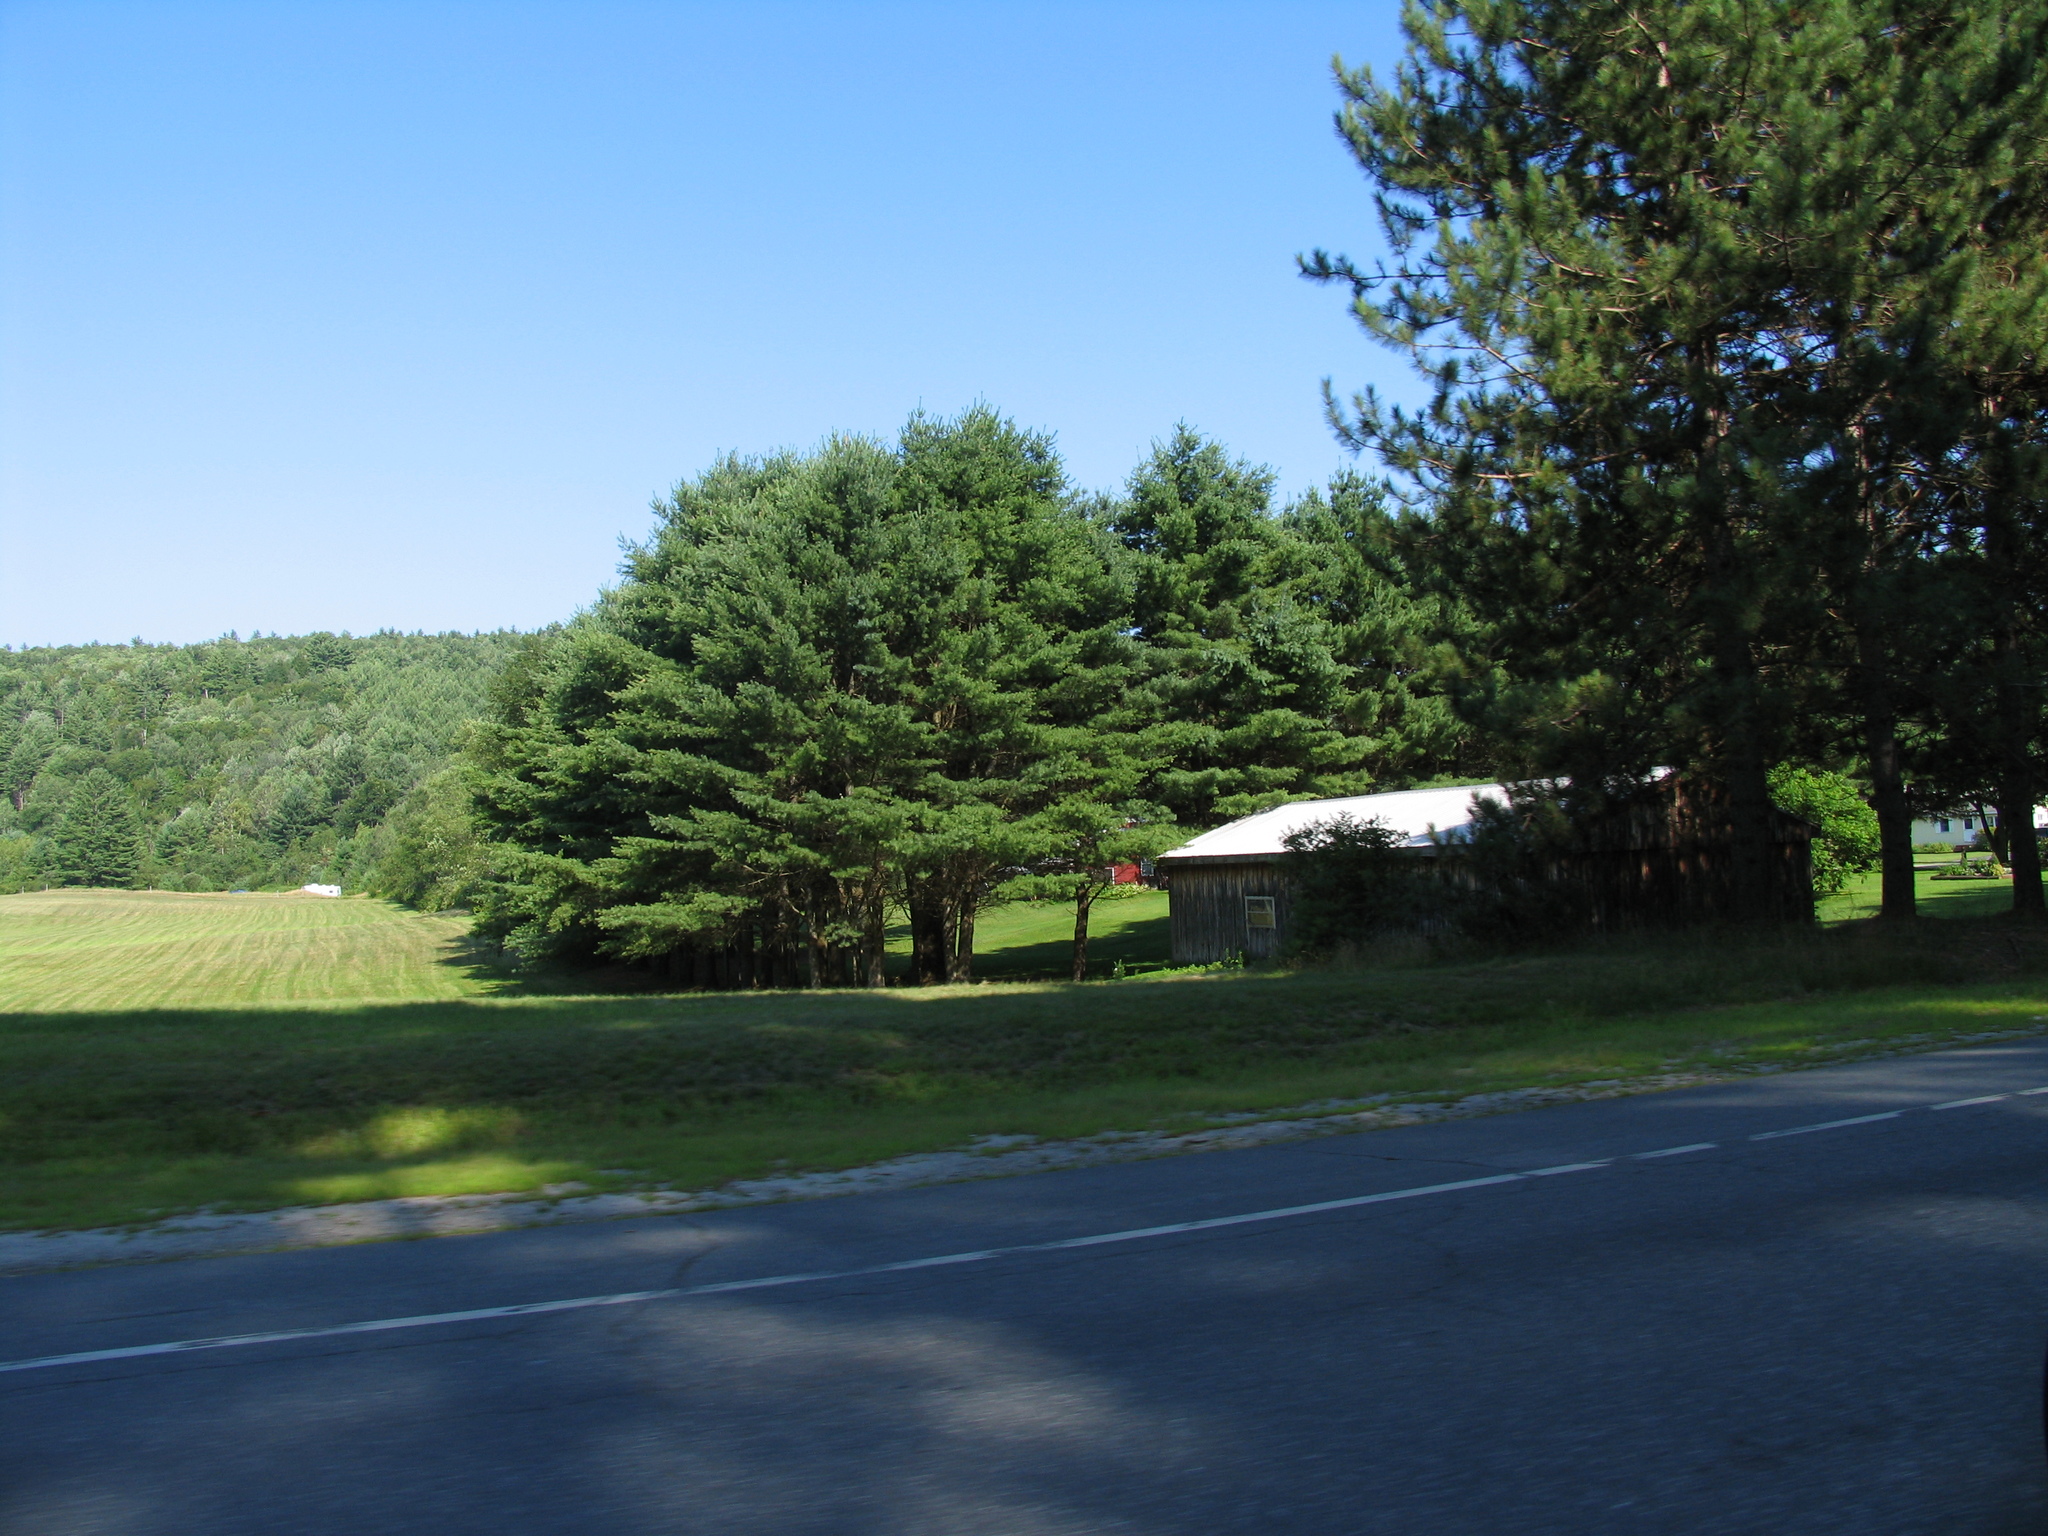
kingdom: Plantae
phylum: Tracheophyta
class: Pinopsida
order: Pinales
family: Pinaceae
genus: Pinus
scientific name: Pinus strobus
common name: Weymouth pine
